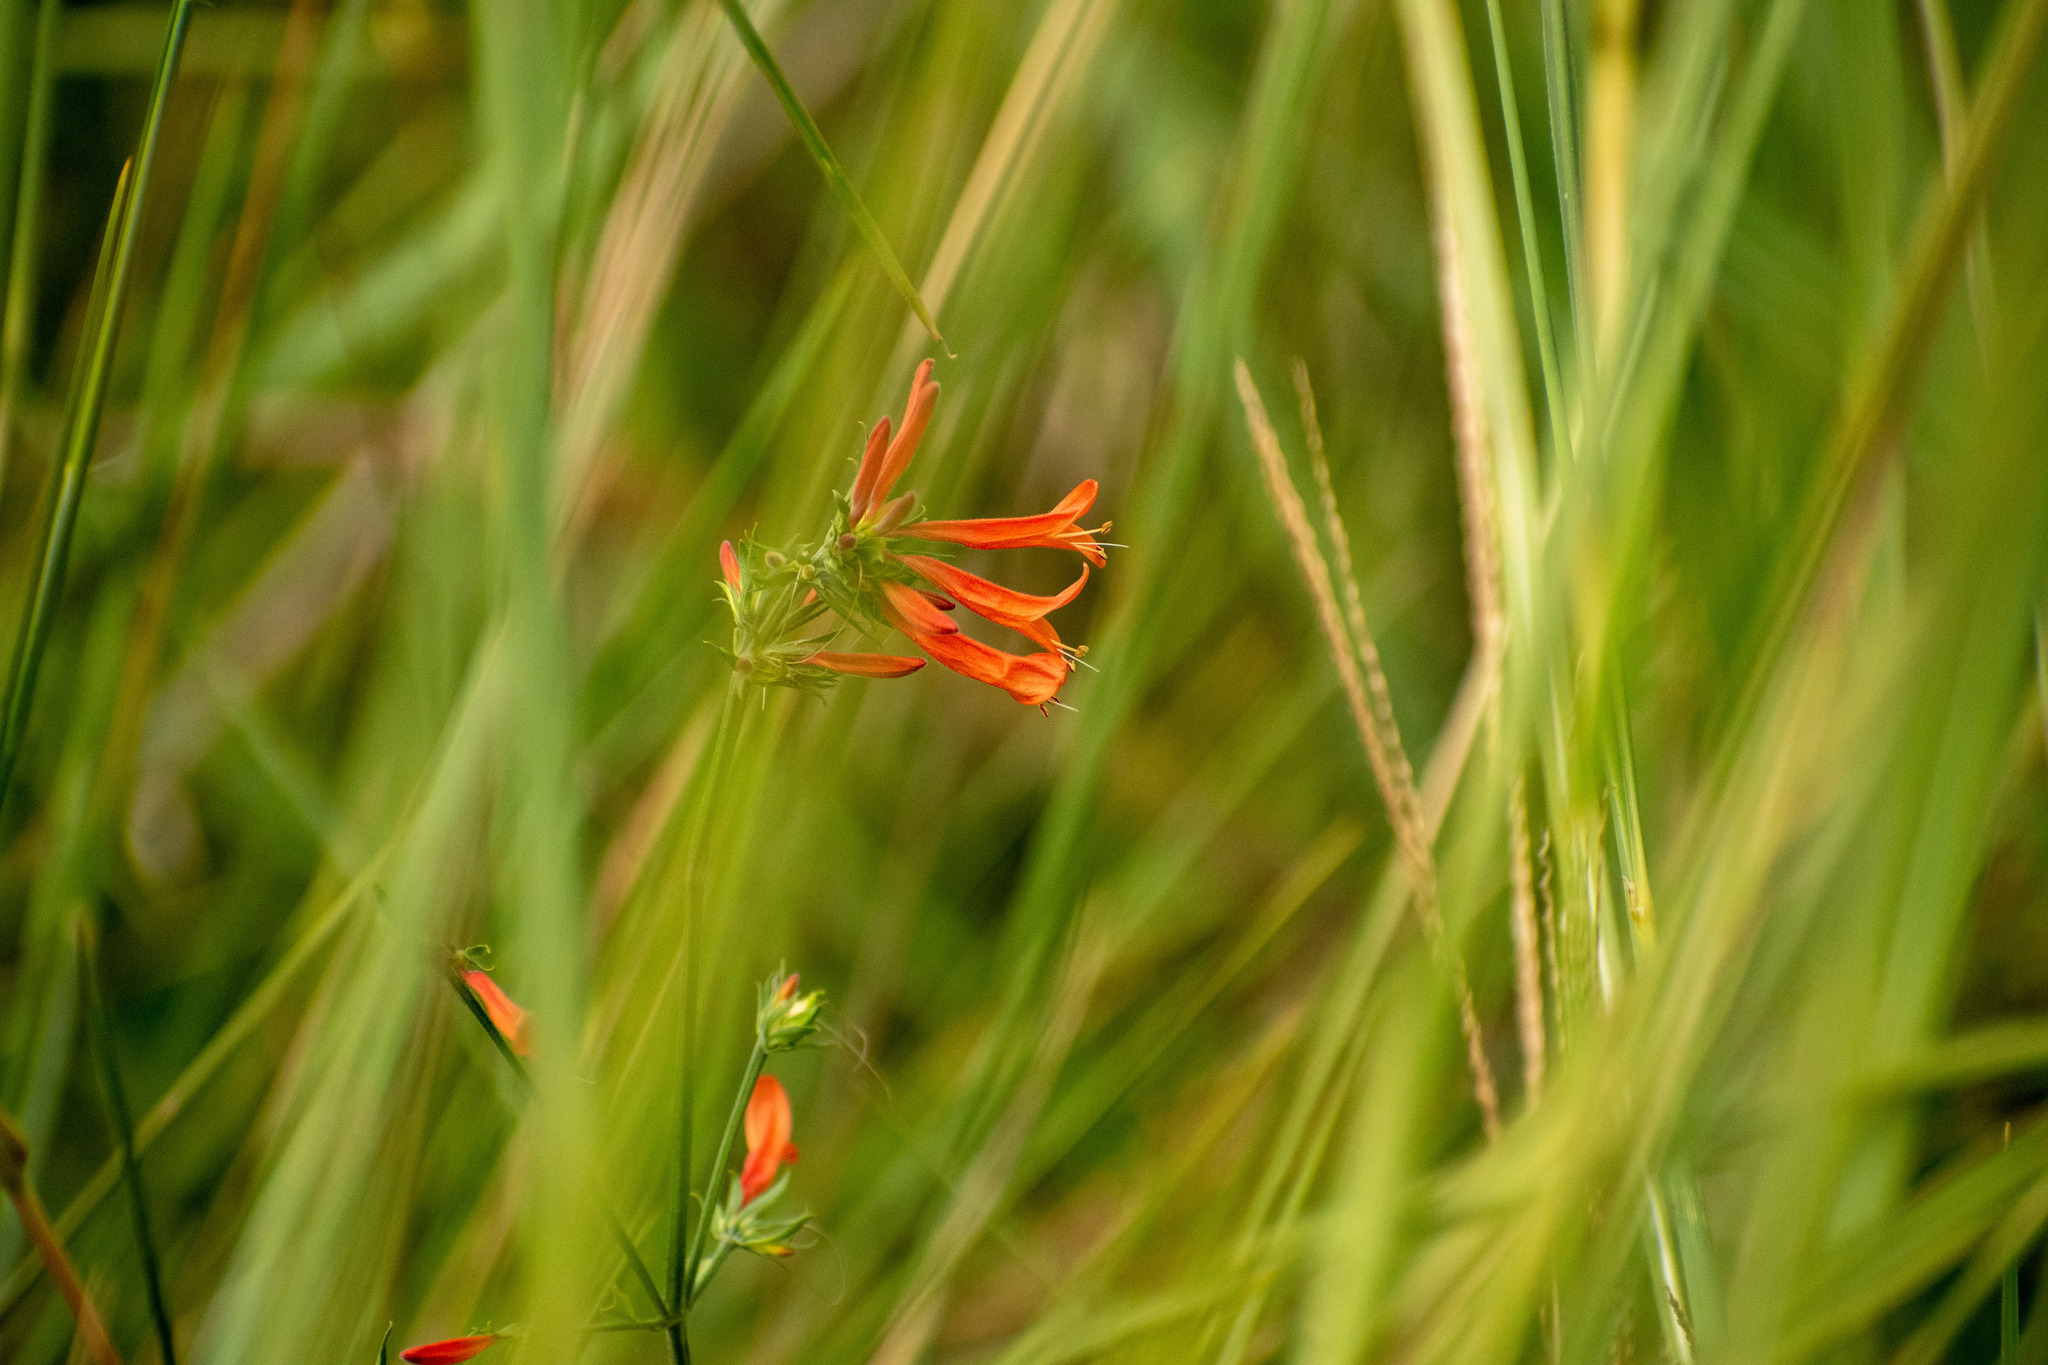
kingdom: Plantae
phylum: Tracheophyta
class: Magnoliopsida
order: Lamiales
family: Acanthaceae
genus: Dicliptera
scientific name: Dicliptera squarrosa
